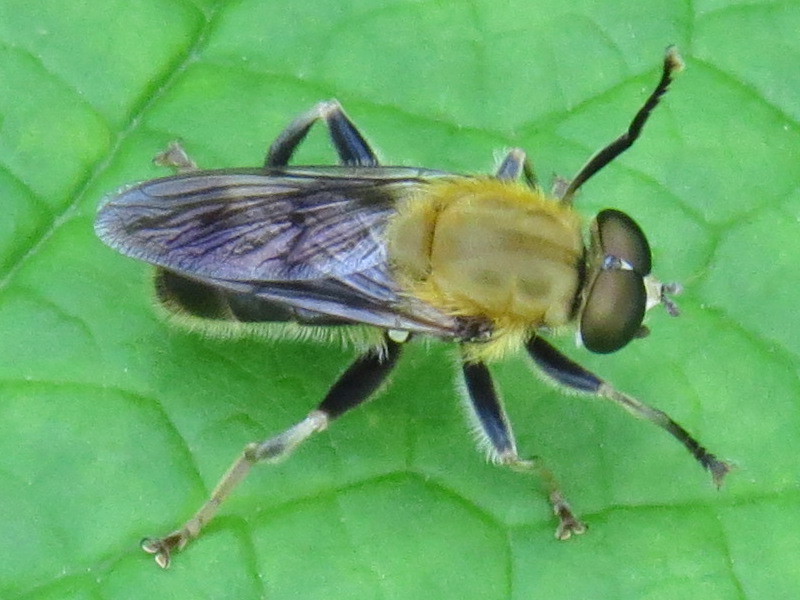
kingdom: Animalia
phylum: Arthropoda
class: Insecta
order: Diptera
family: Syrphidae
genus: Pterallastes
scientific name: Pterallastes thoracicus
